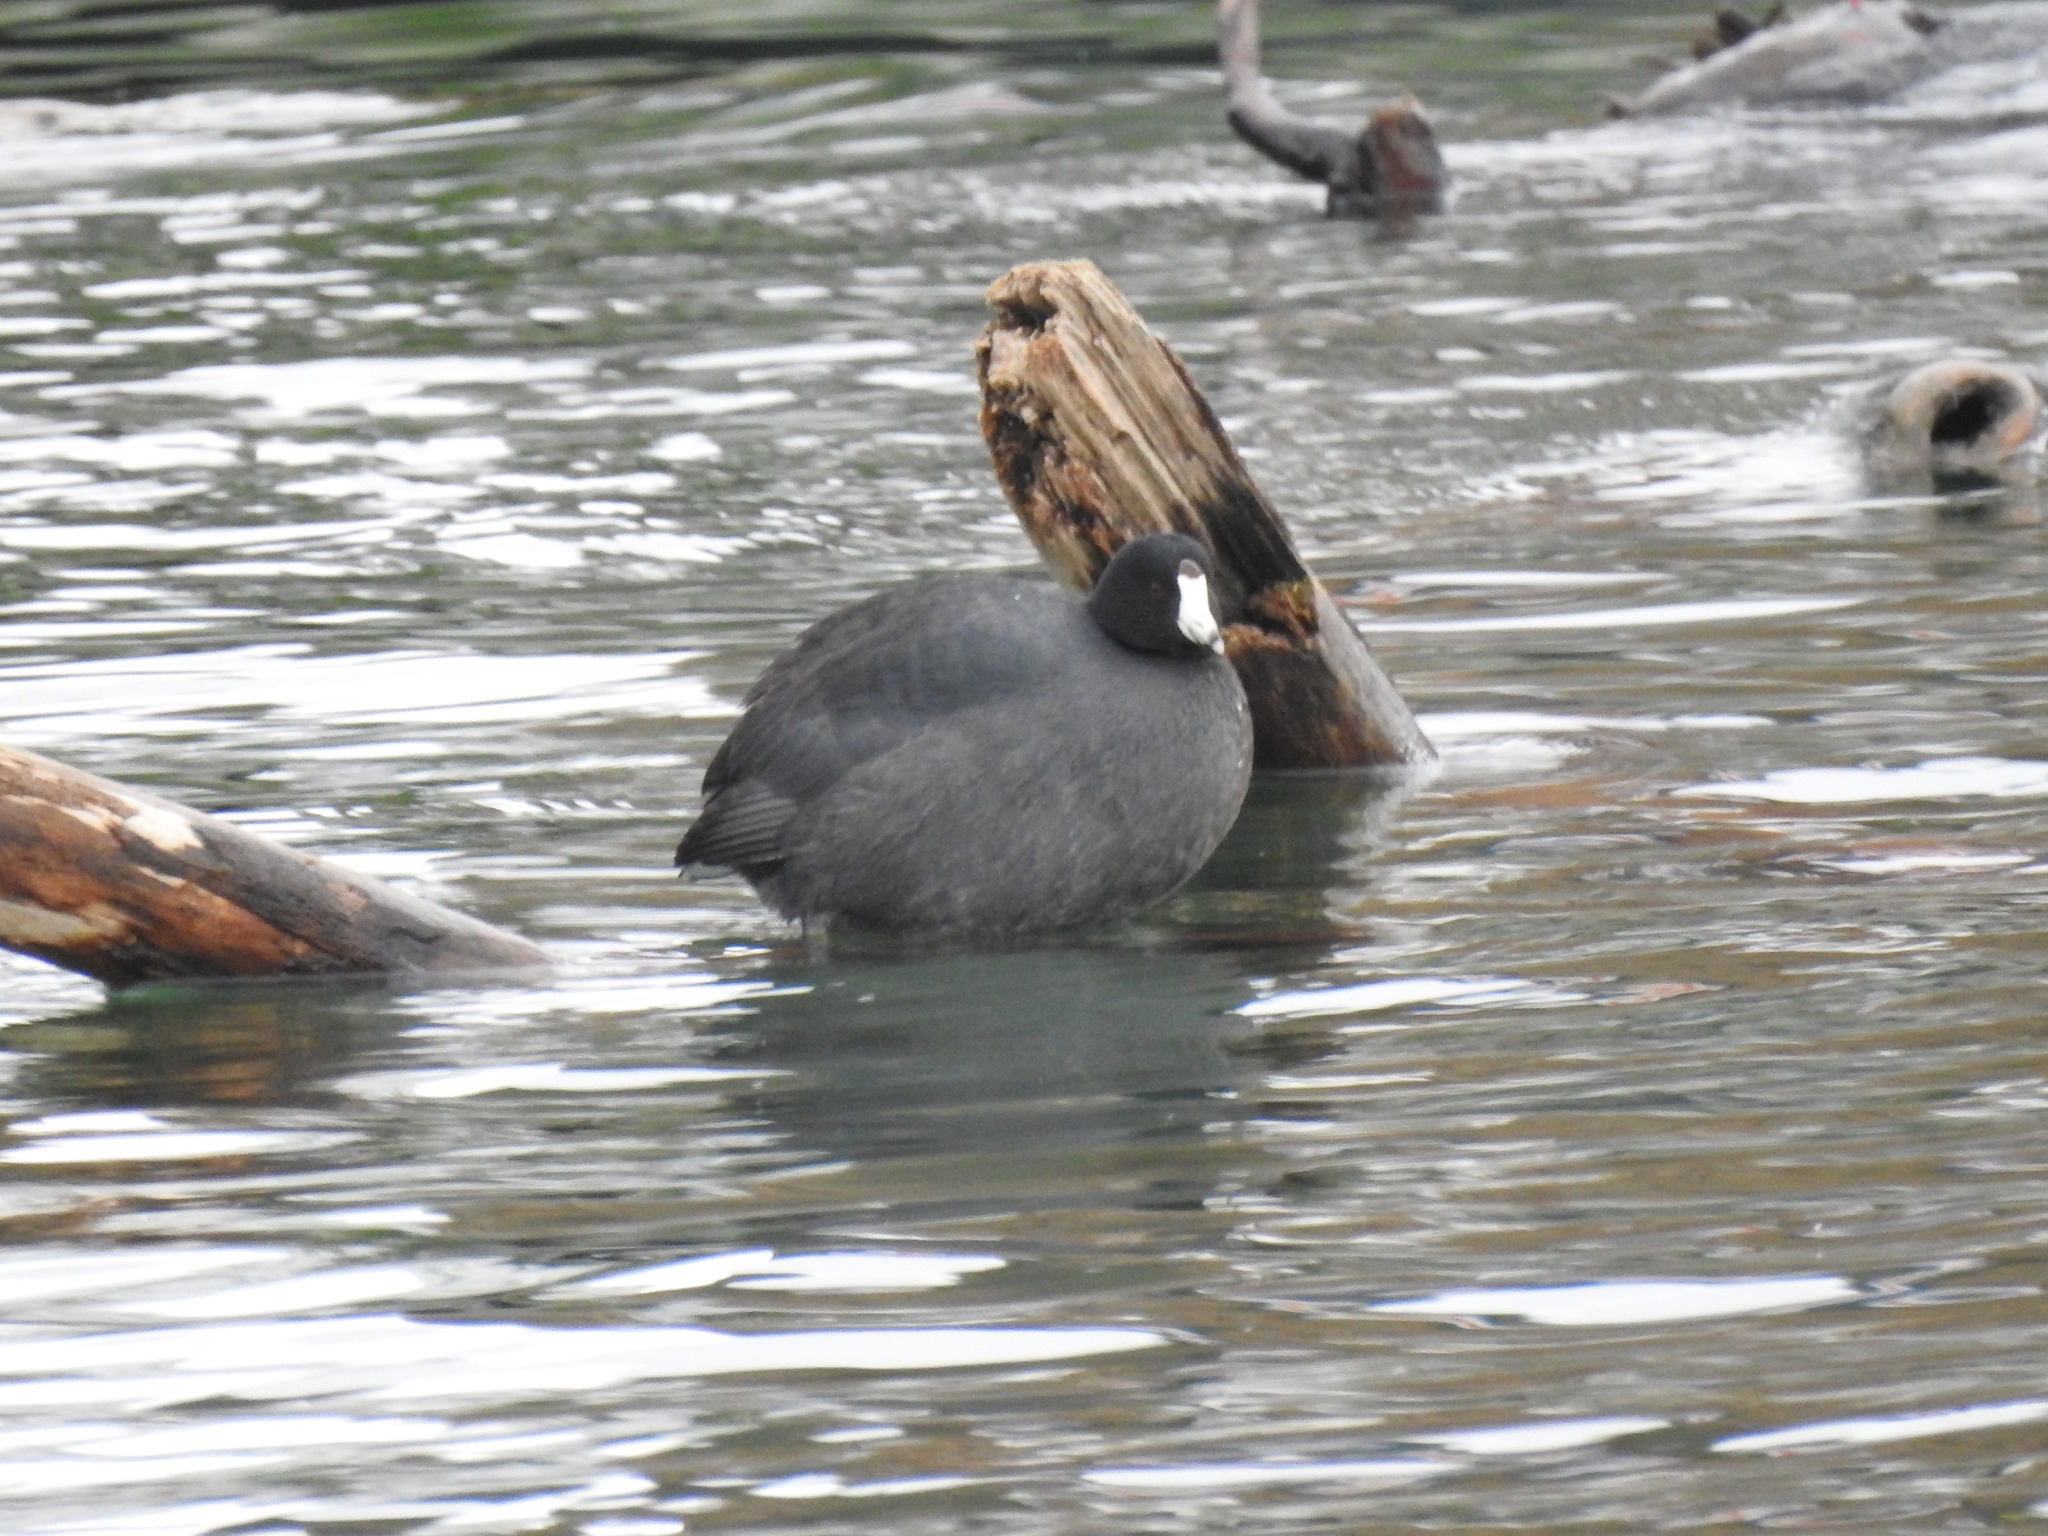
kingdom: Animalia
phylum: Chordata
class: Aves
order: Gruiformes
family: Rallidae
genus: Fulica
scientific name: Fulica americana
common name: American coot
